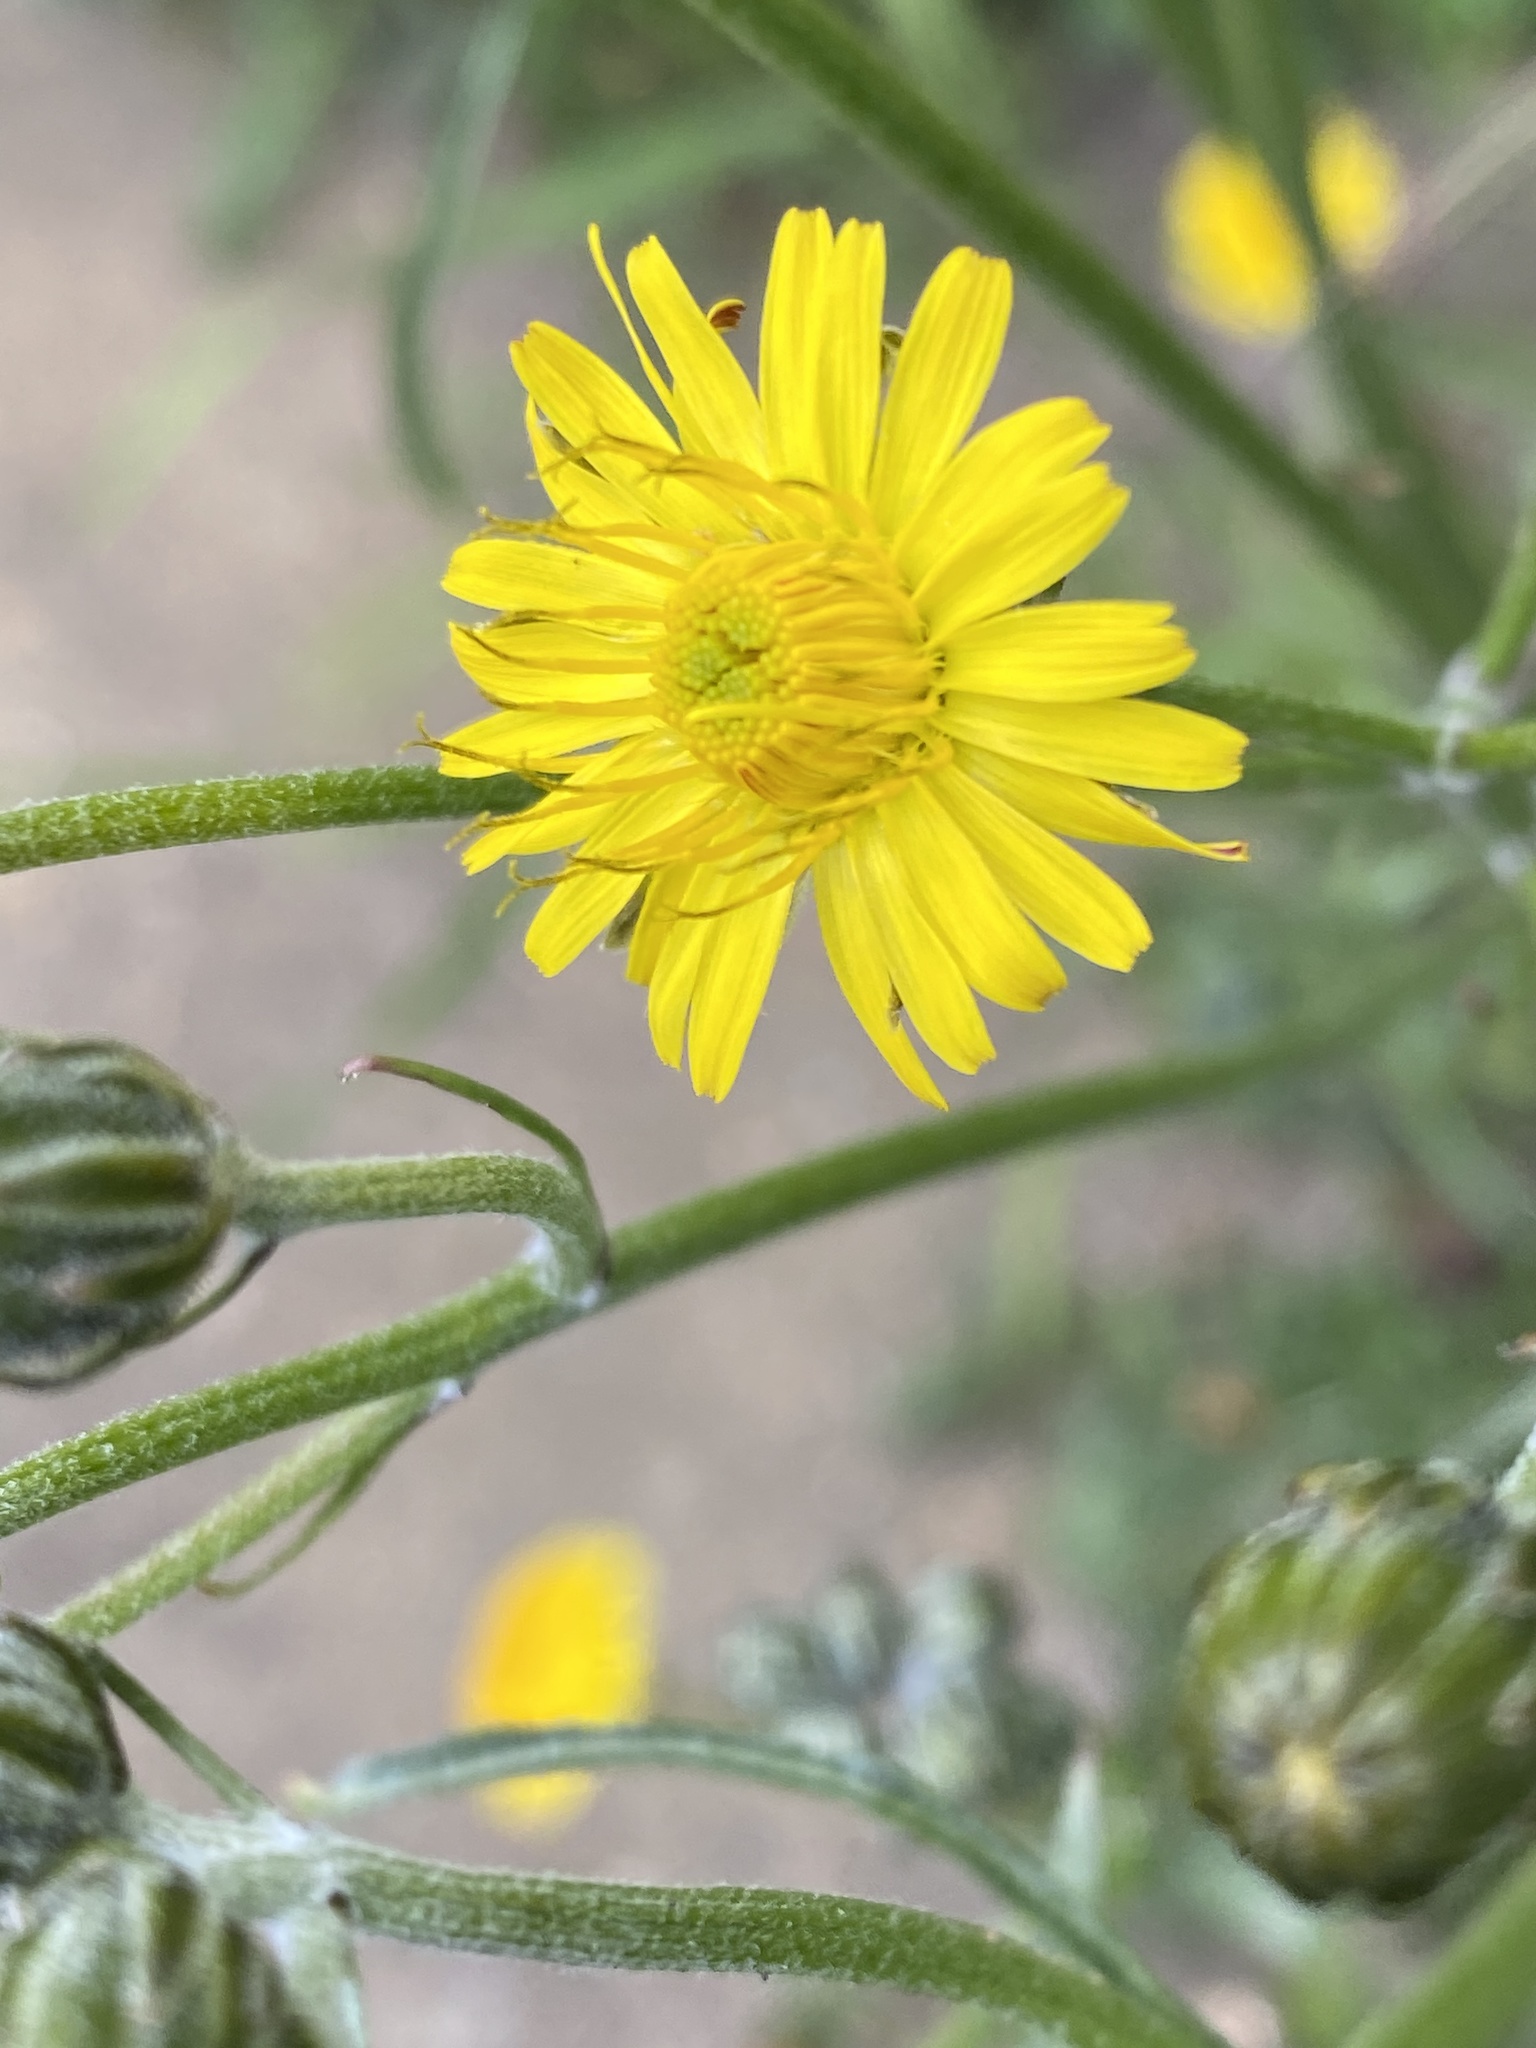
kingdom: Plantae
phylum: Tracheophyta
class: Magnoliopsida
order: Asterales
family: Asteraceae
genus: Crepis
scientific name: Crepis vesicaria
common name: Beaked hawksbeard
